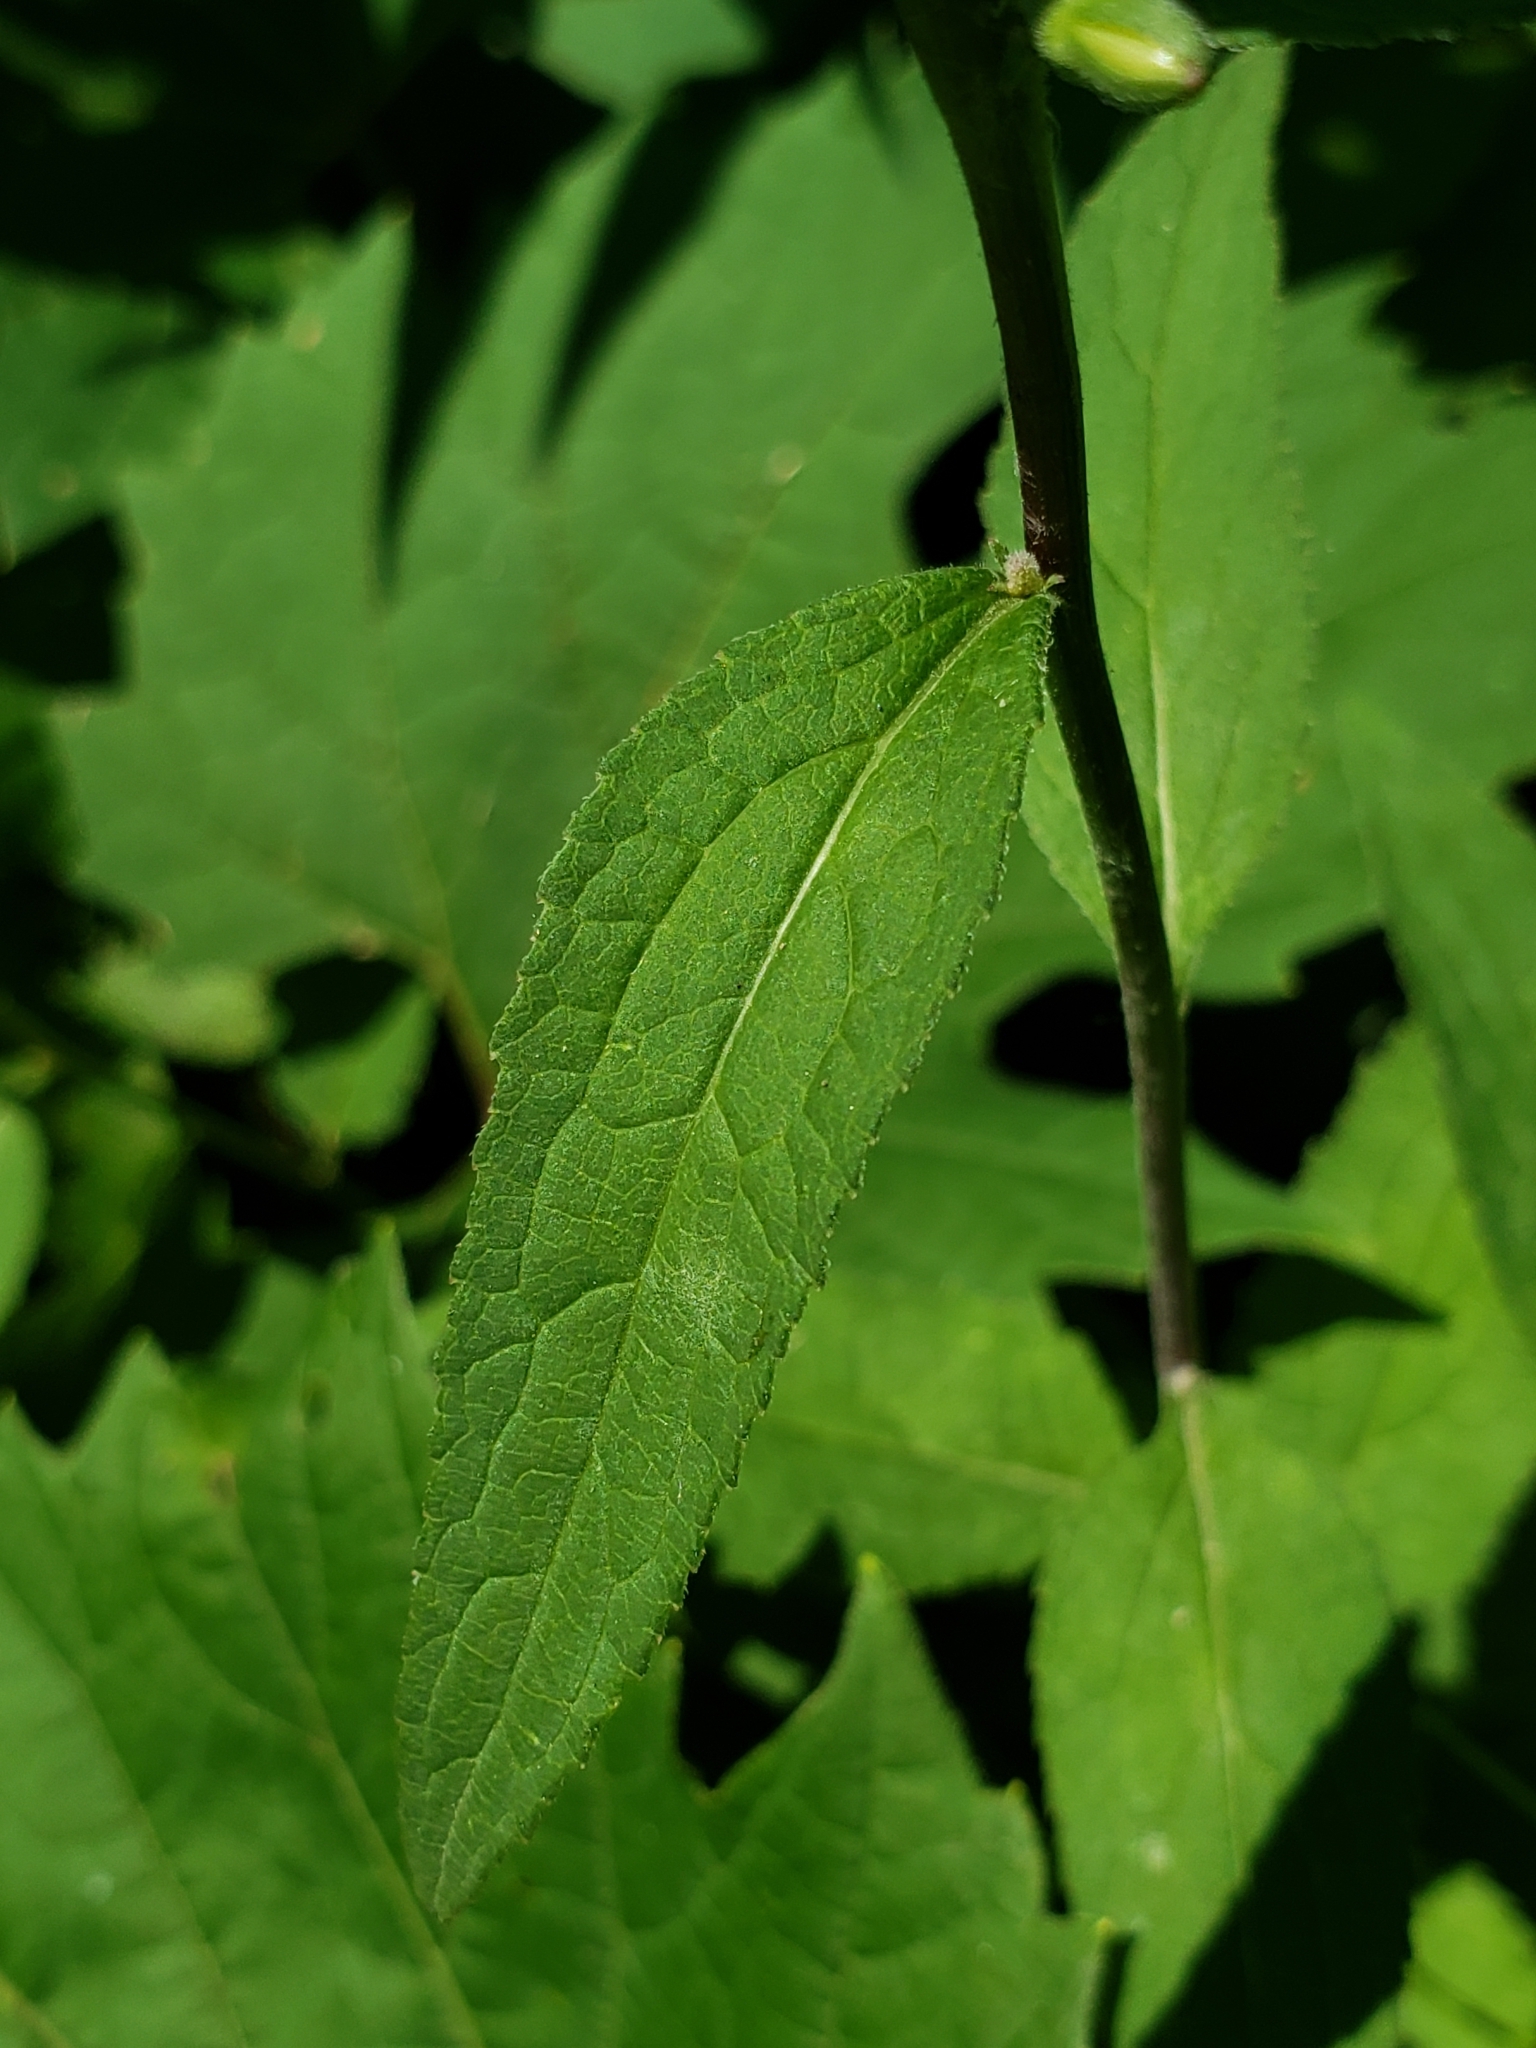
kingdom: Plantae
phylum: Tracheophyta
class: Magnoliopsida
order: Asterales
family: Campanulaceae
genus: Campanula
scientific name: Campanula rapunculoides
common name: Creeping bellflower
